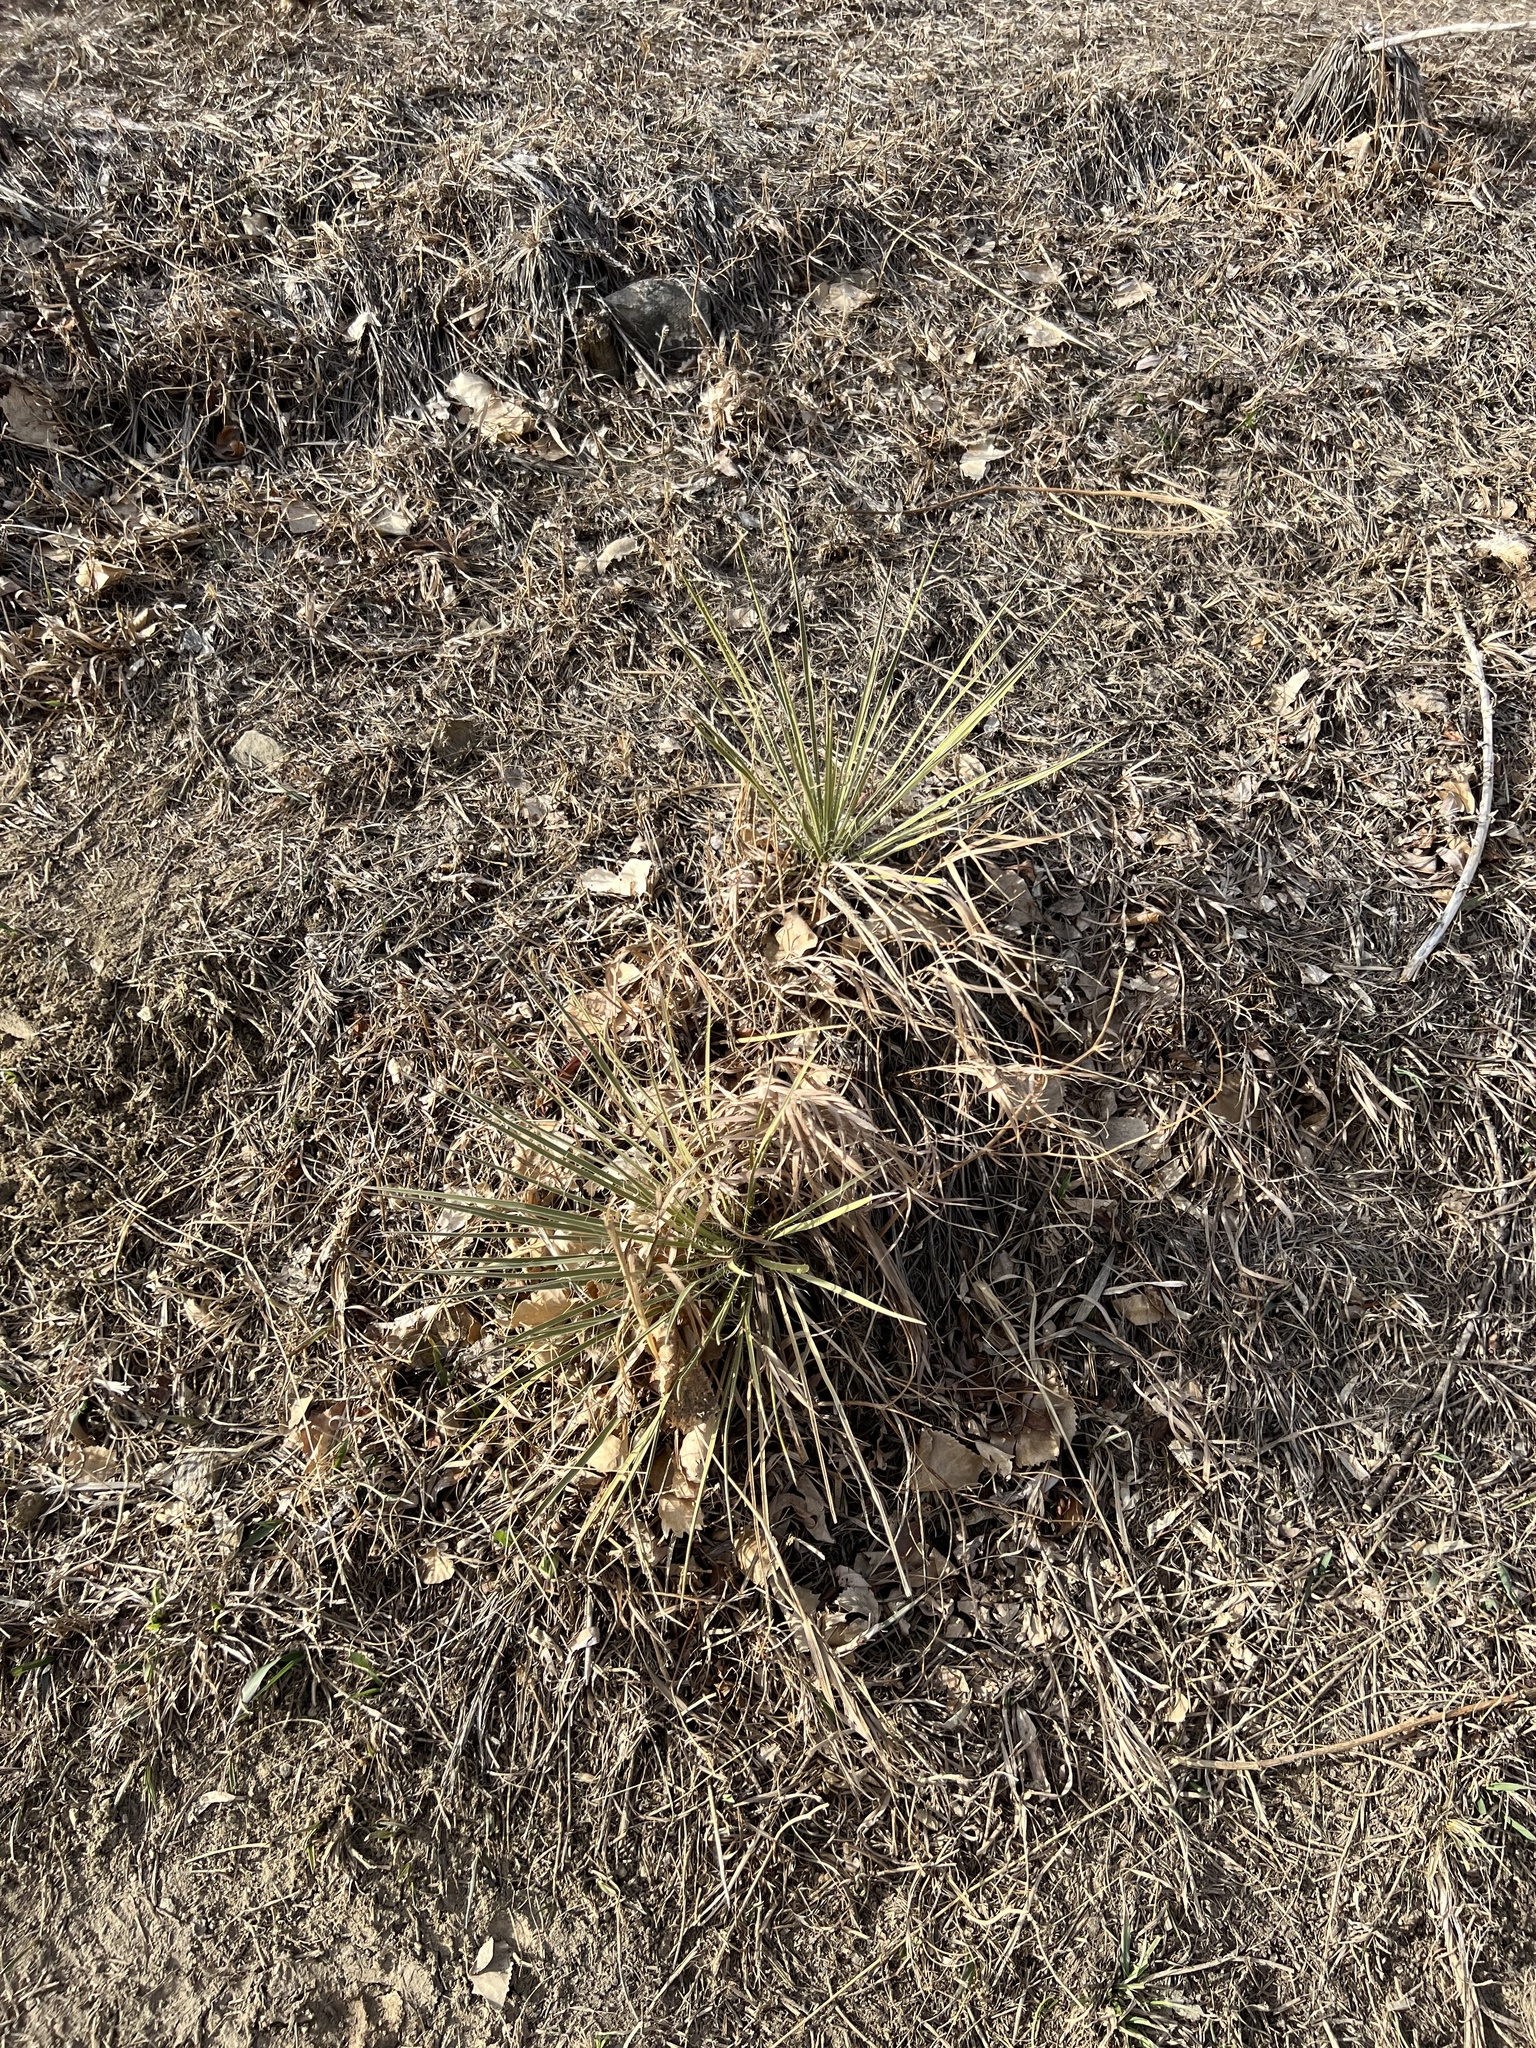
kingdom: Plantae
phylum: Tracheophyta
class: Liliopsida
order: Asparagales
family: Asparagaceae
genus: Yucca
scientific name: Yucca glauca
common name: Great plains yucca
